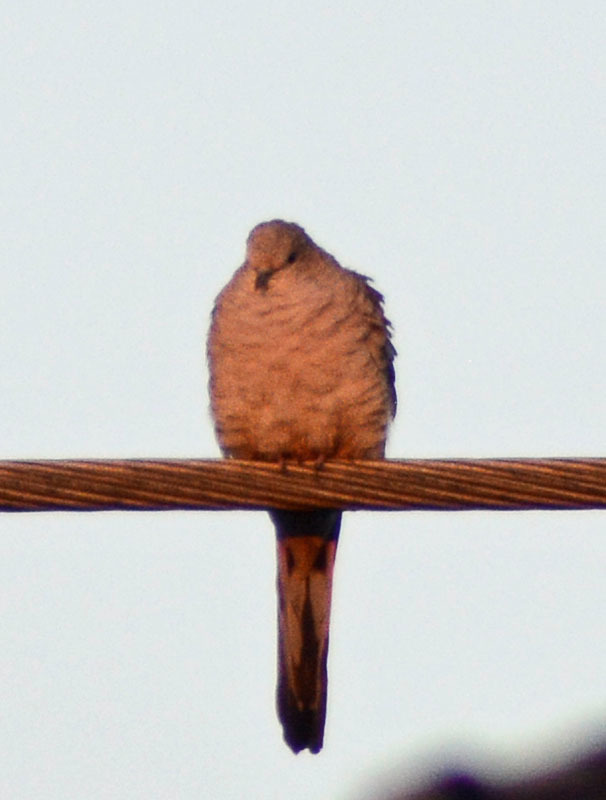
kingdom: Animalia
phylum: Chordata
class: Aves
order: Columbiformes
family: Columbidae
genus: Columbina
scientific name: Columbina inca
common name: Inca dove
